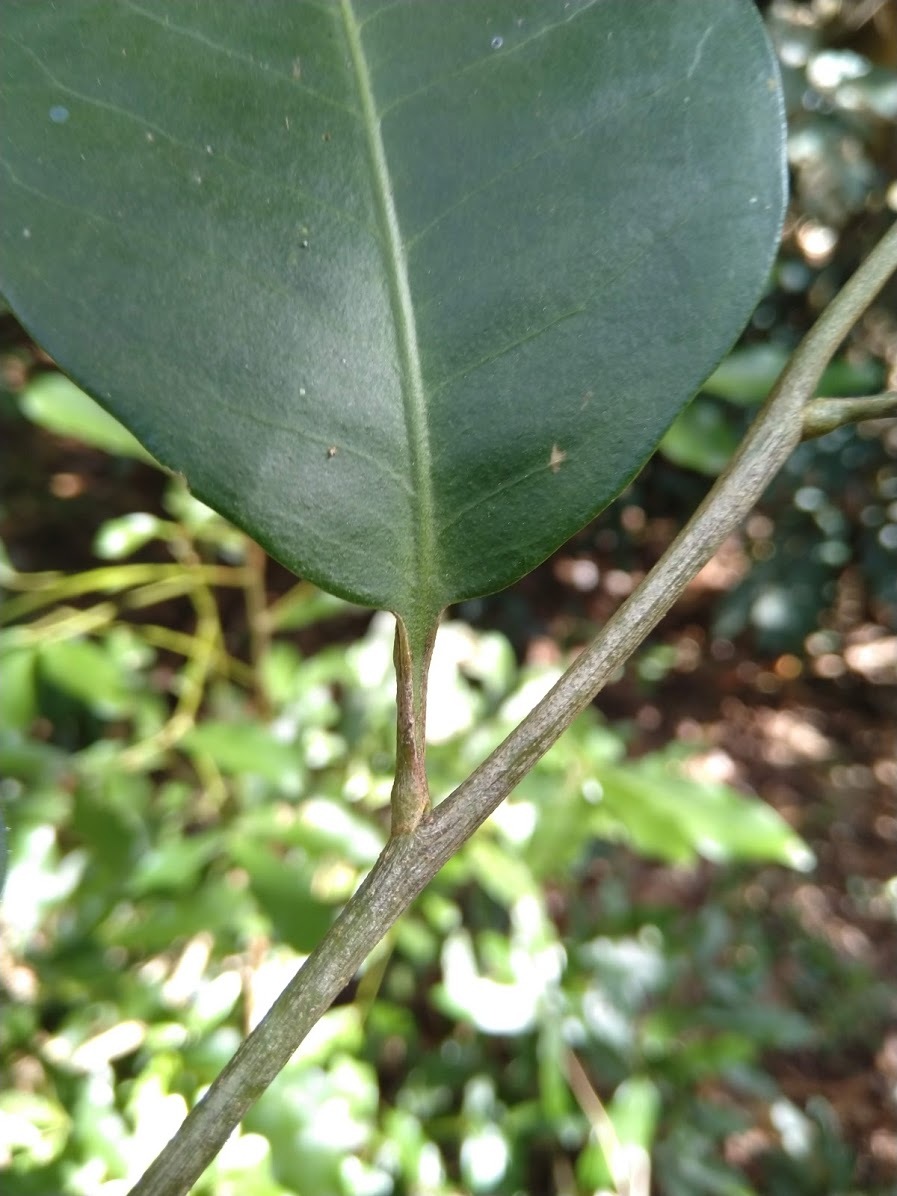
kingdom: Plantae
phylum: Tracheophyta
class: Magnoliopsida
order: Sapindales
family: Rutaceae
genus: Geijera
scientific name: Geijera salicifolia
